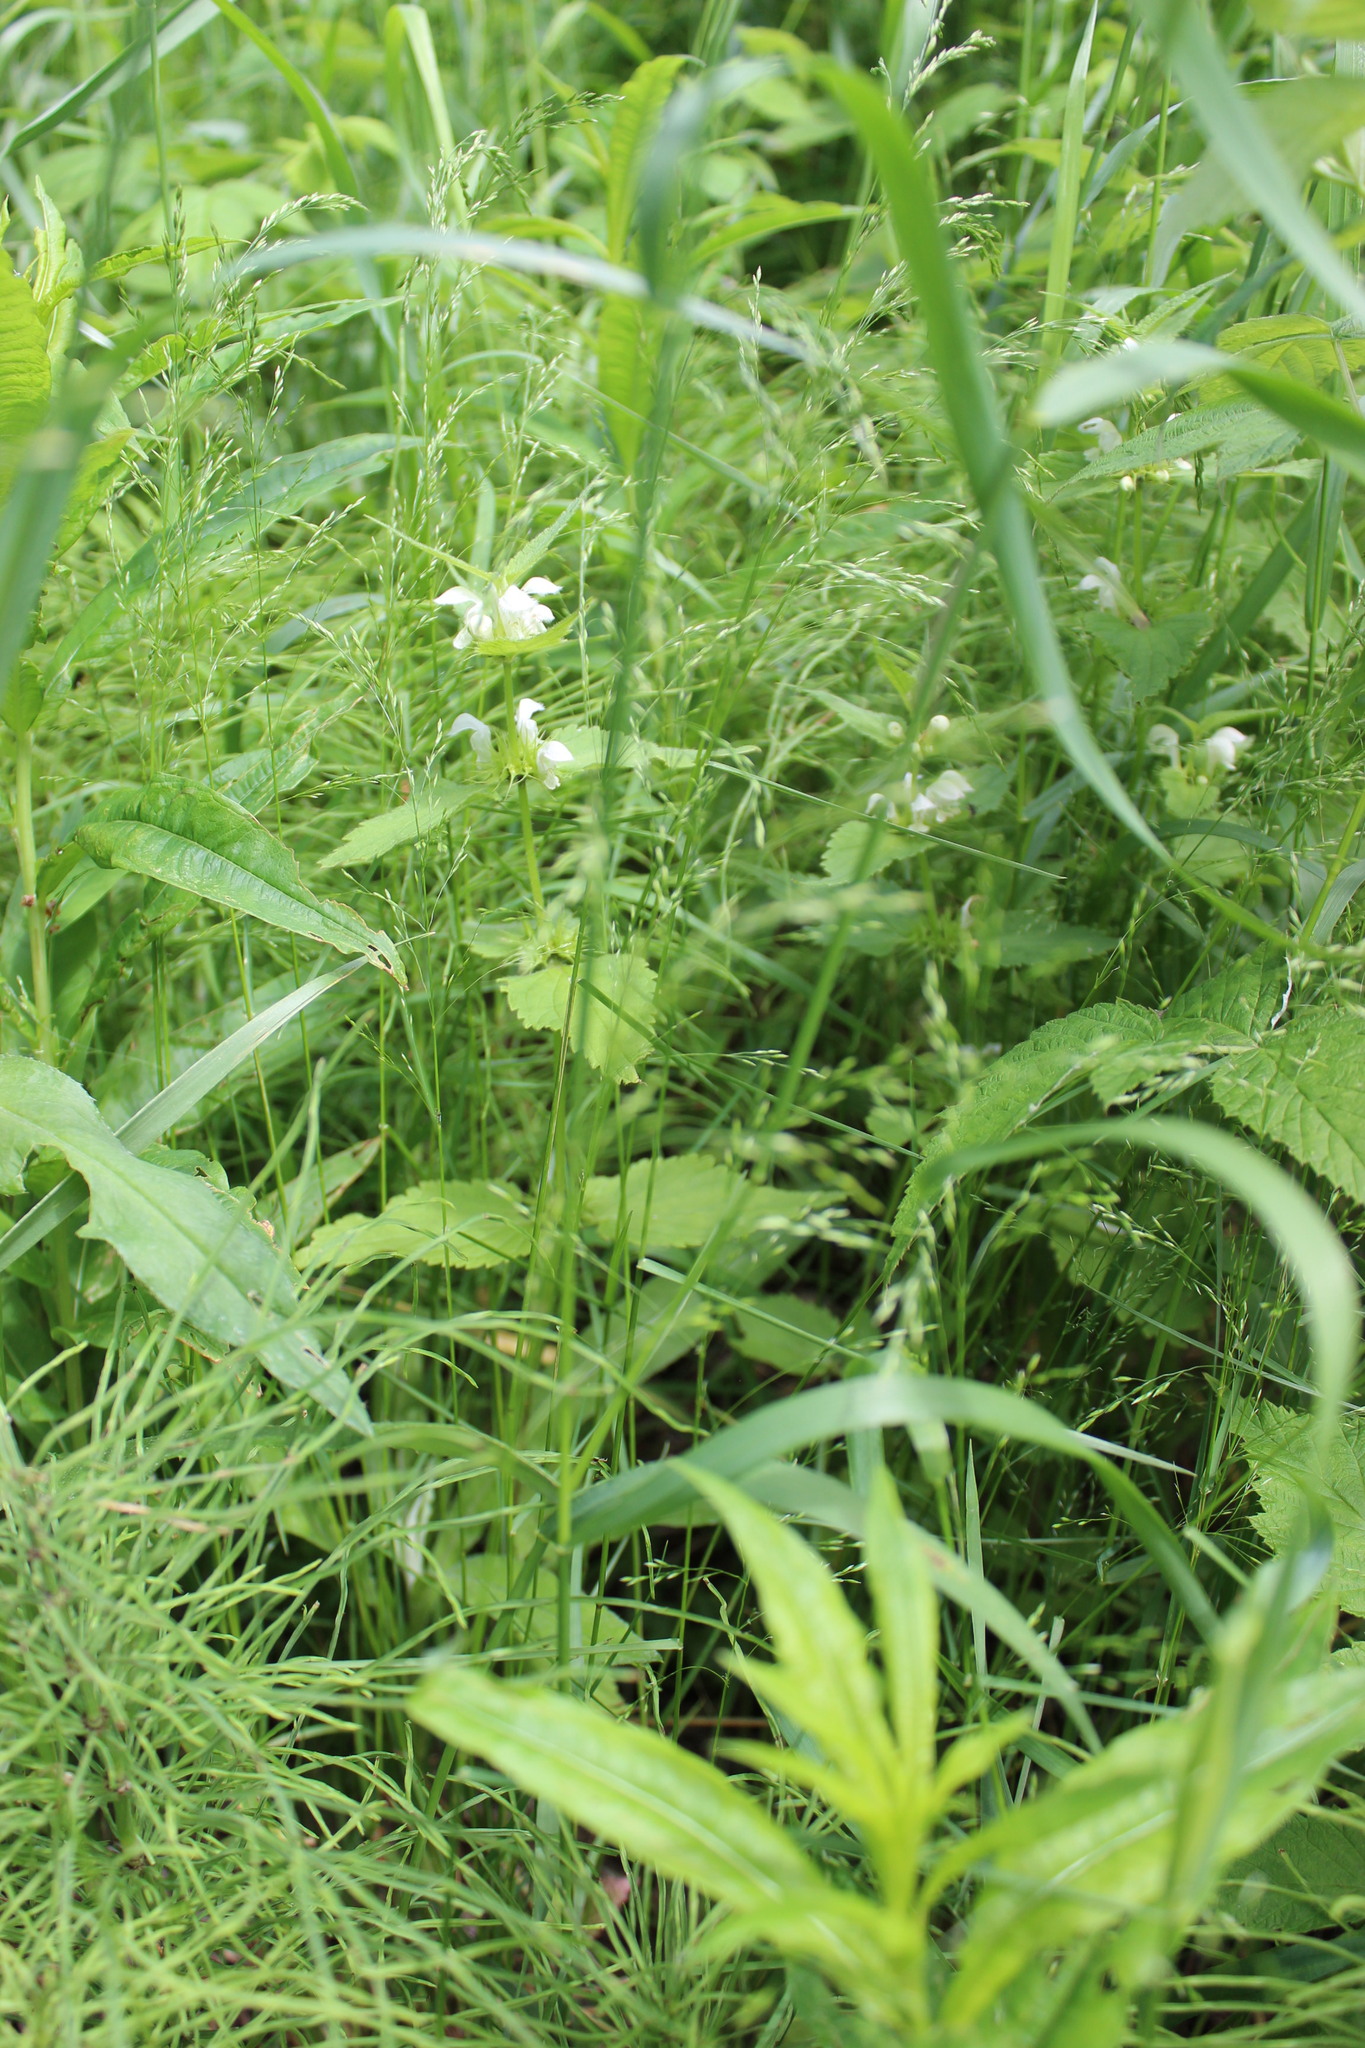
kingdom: Plantae
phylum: Tracheophyta
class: Magnoliopsida
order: Lamiales
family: Lamiaceae
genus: Lamium
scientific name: Lamium album
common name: White dead-nettle
